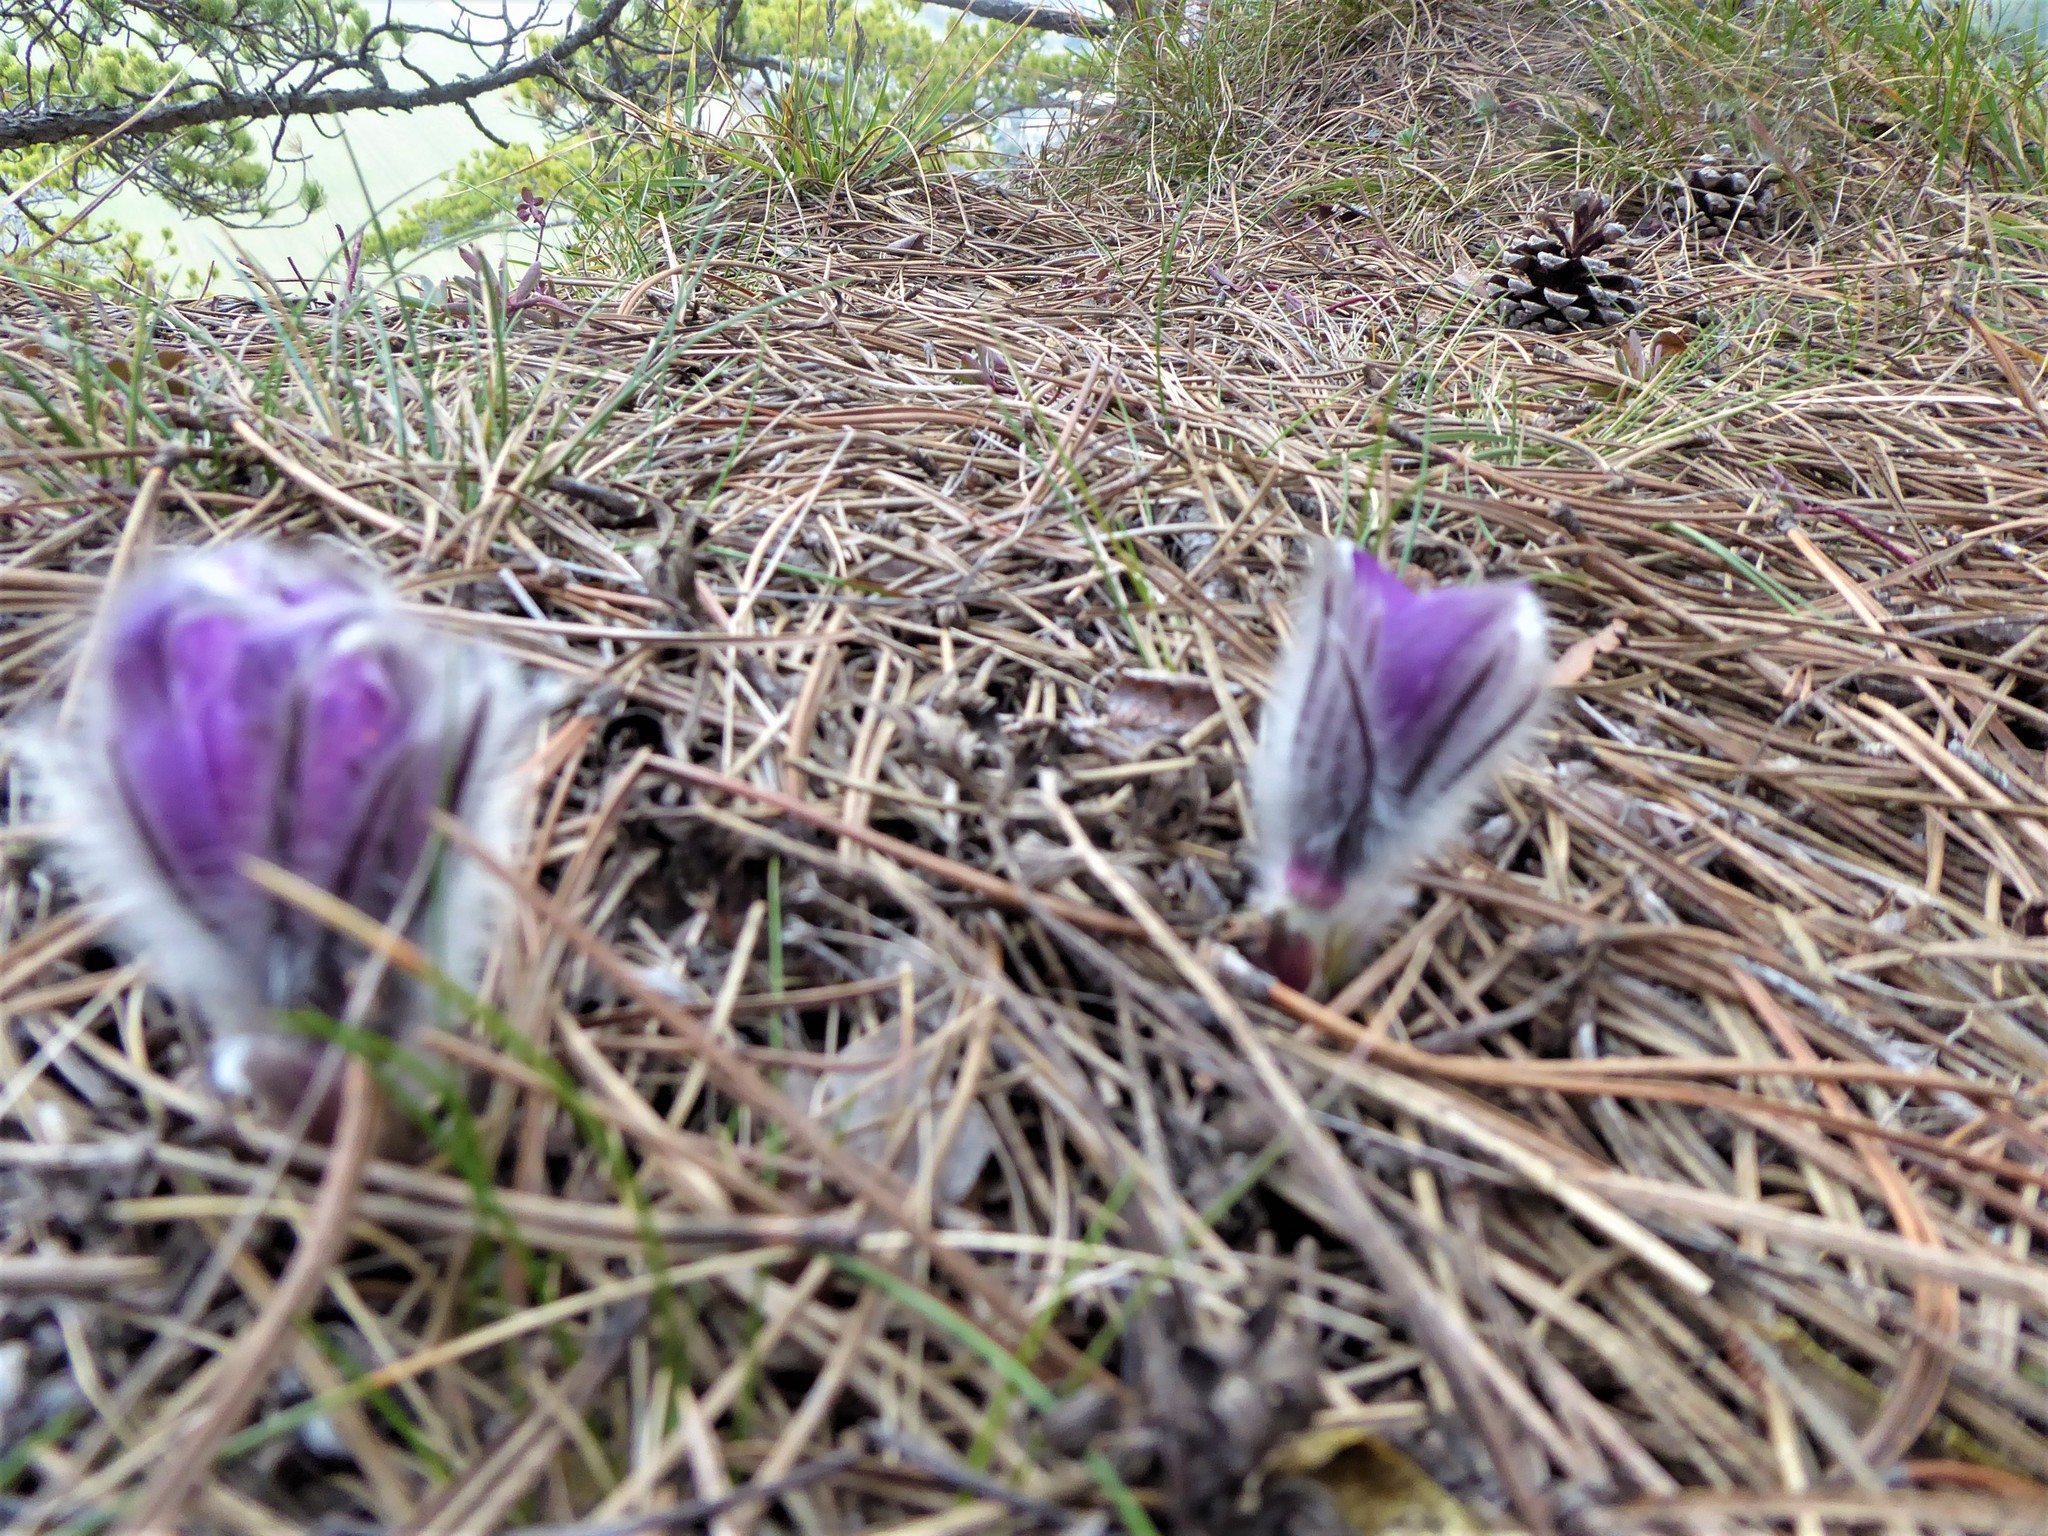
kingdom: Plantae
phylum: Tracheophyta
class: Magnoliopsida
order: Ranunculales
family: Ranunculaceae
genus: Pulsatilla
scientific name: Pulsatilla grandis
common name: Greater pasque flower
